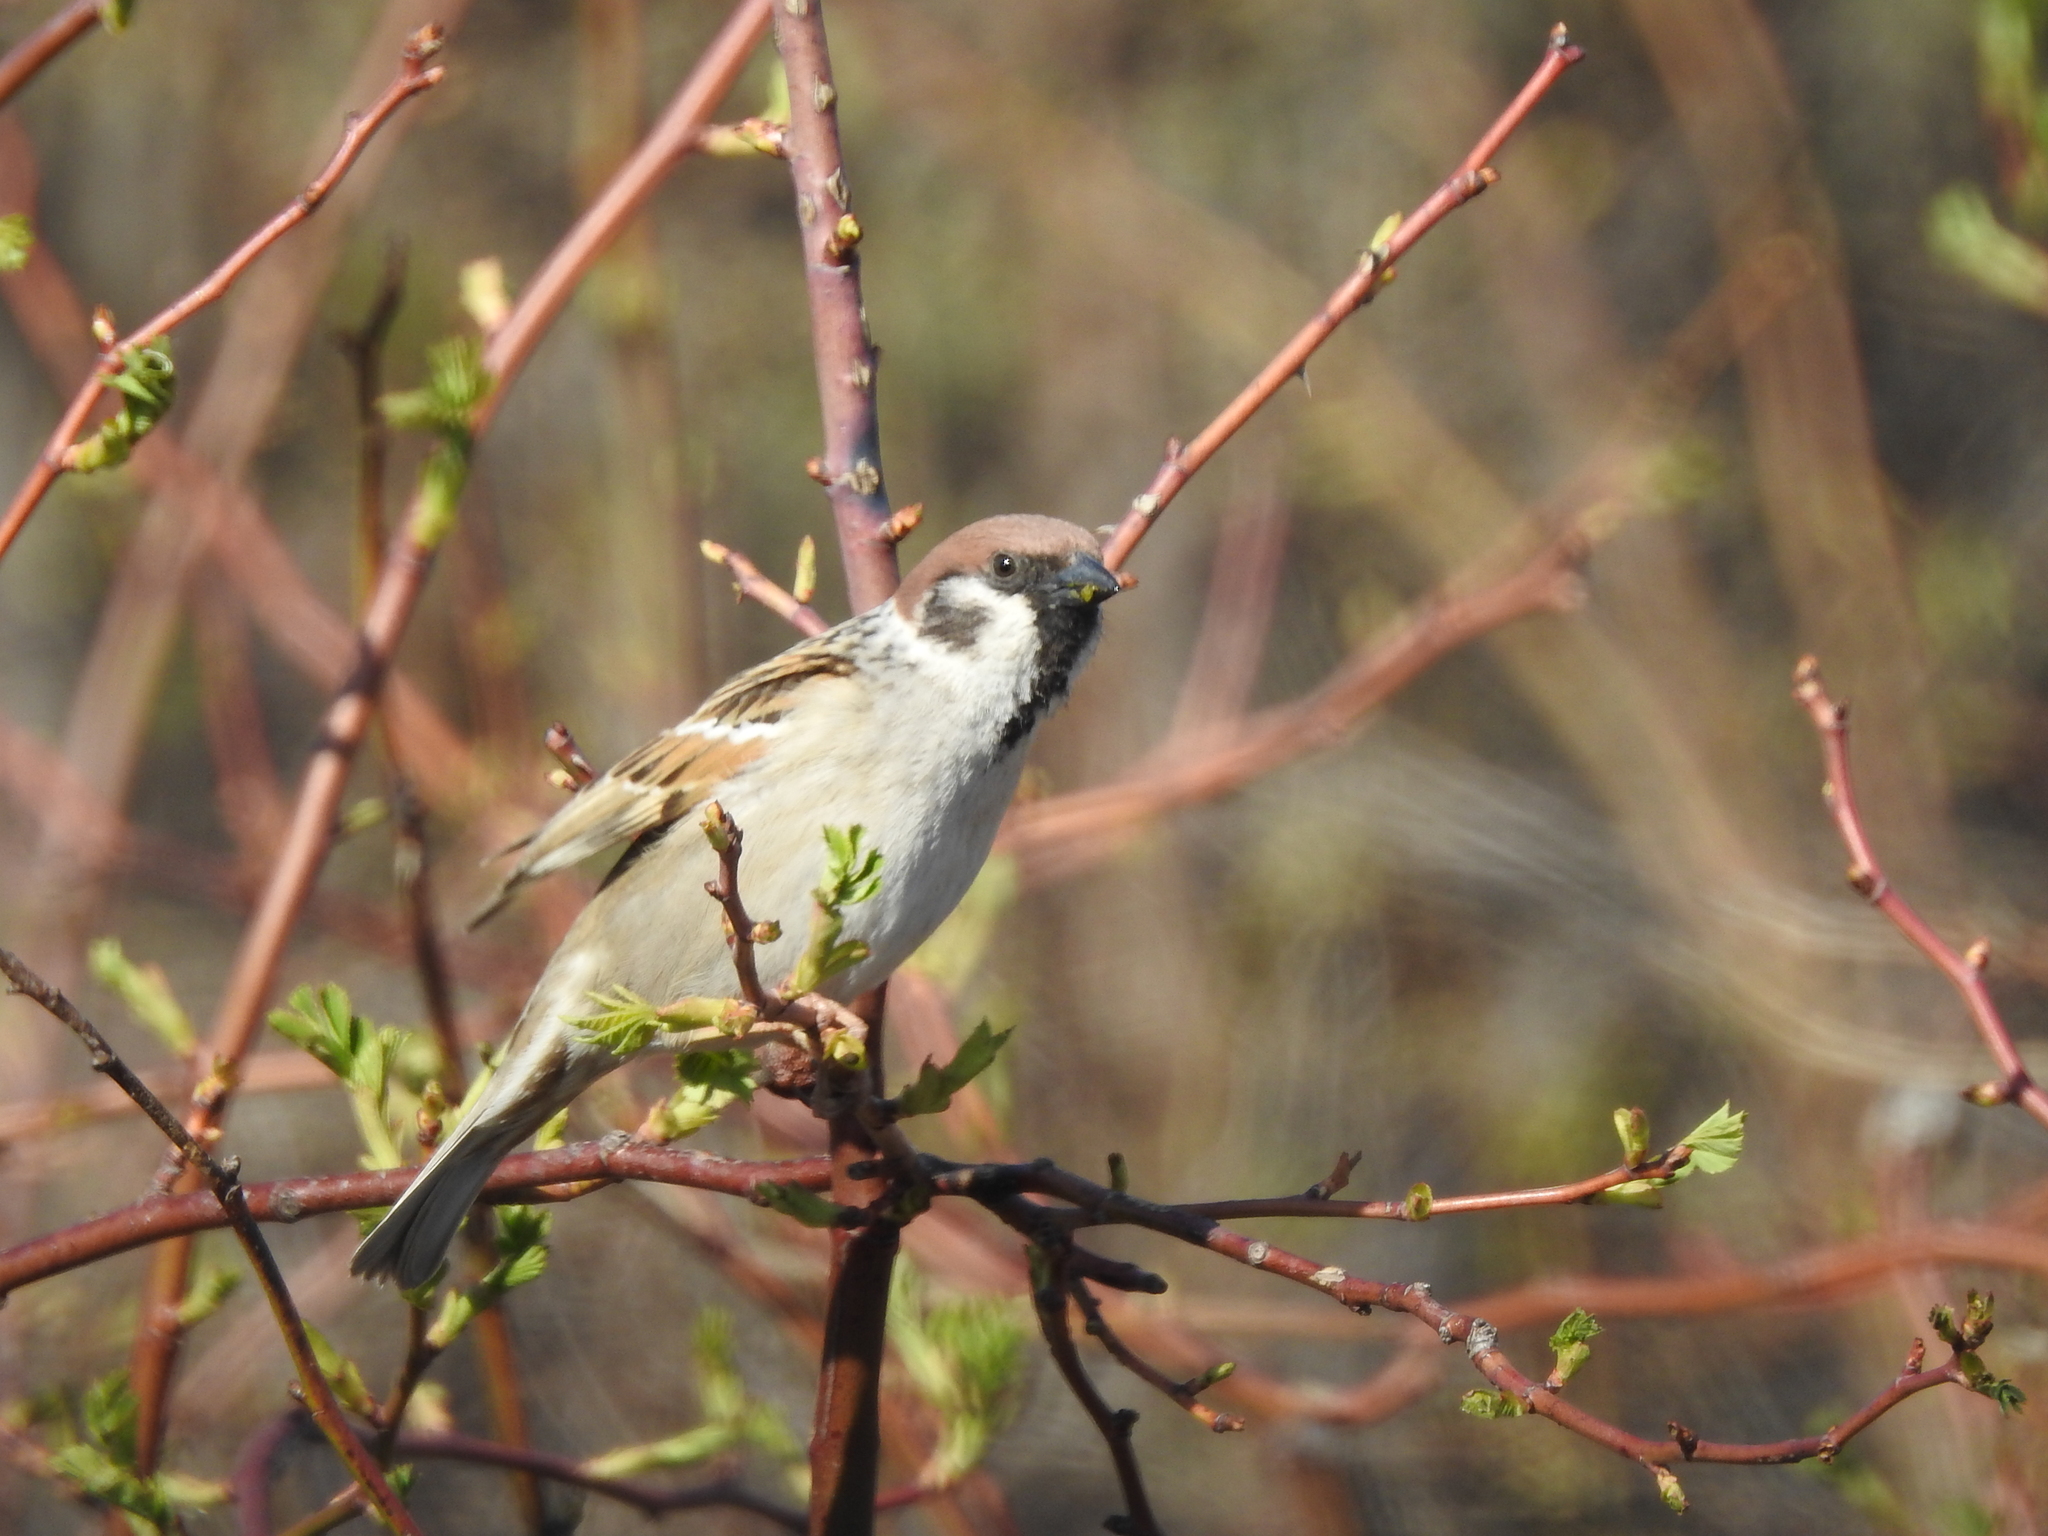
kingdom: Animalia
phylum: Chordata
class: Aves
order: Passeriformes
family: Passeridae
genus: Passer
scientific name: Passer montanus
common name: Eurasian tree sparrow
